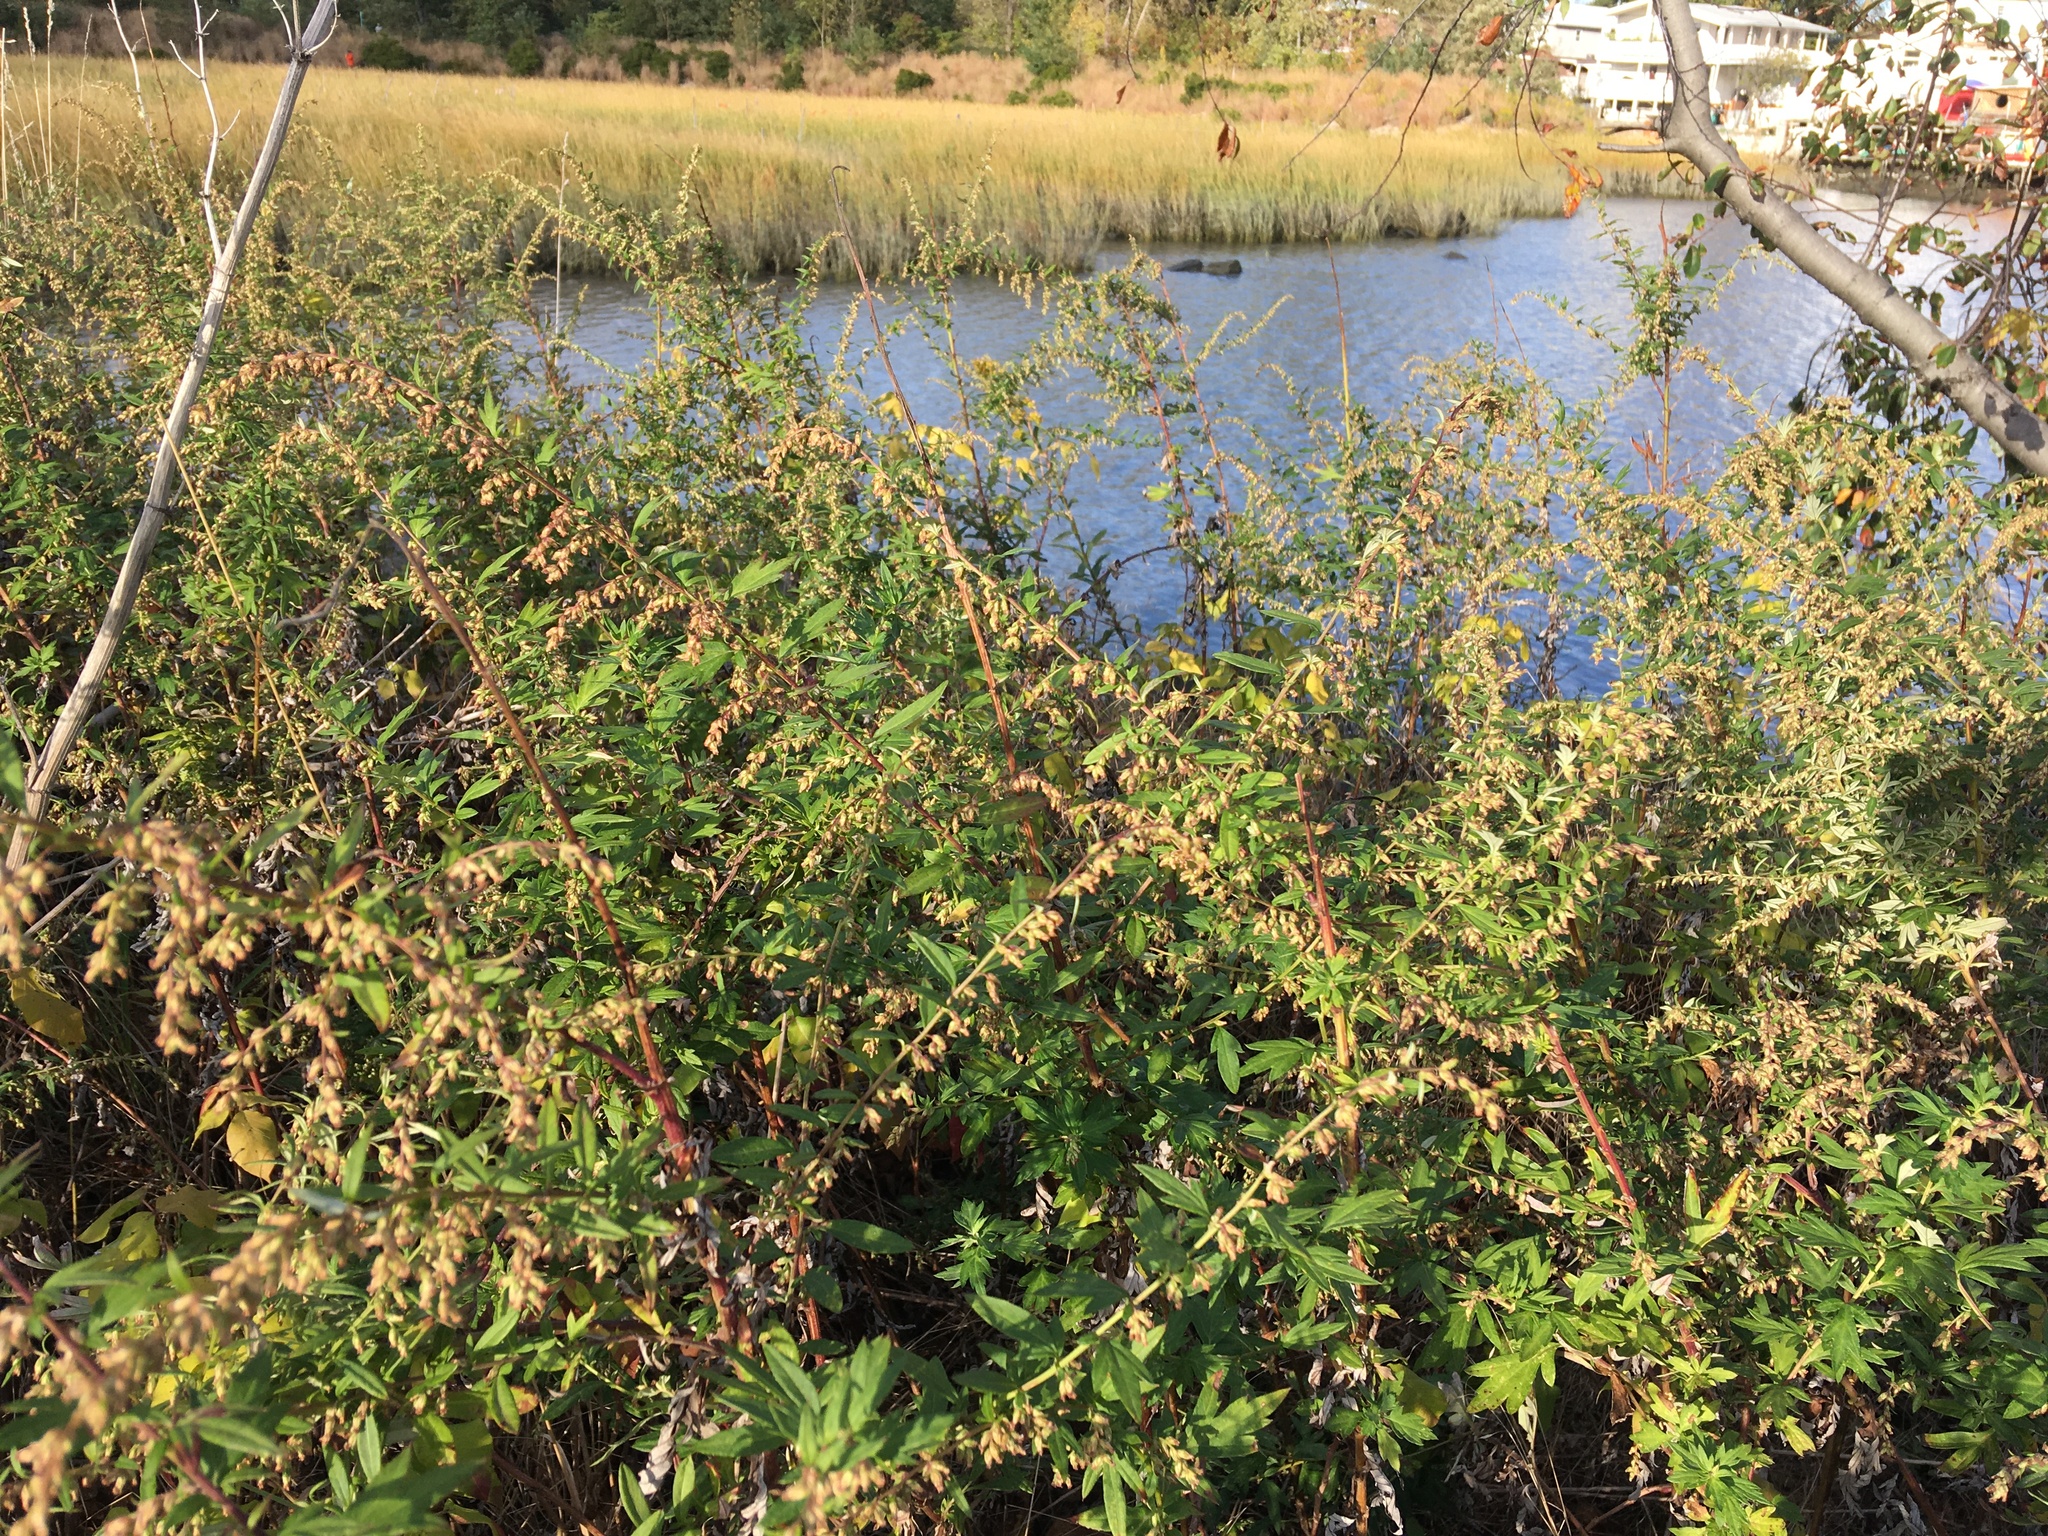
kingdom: Plantae
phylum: Tracheophyta
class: Magnoliopsida
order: Asterales
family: Asteraceae
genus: Artemisia
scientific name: Artemisia vulgaris
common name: Mugwort
